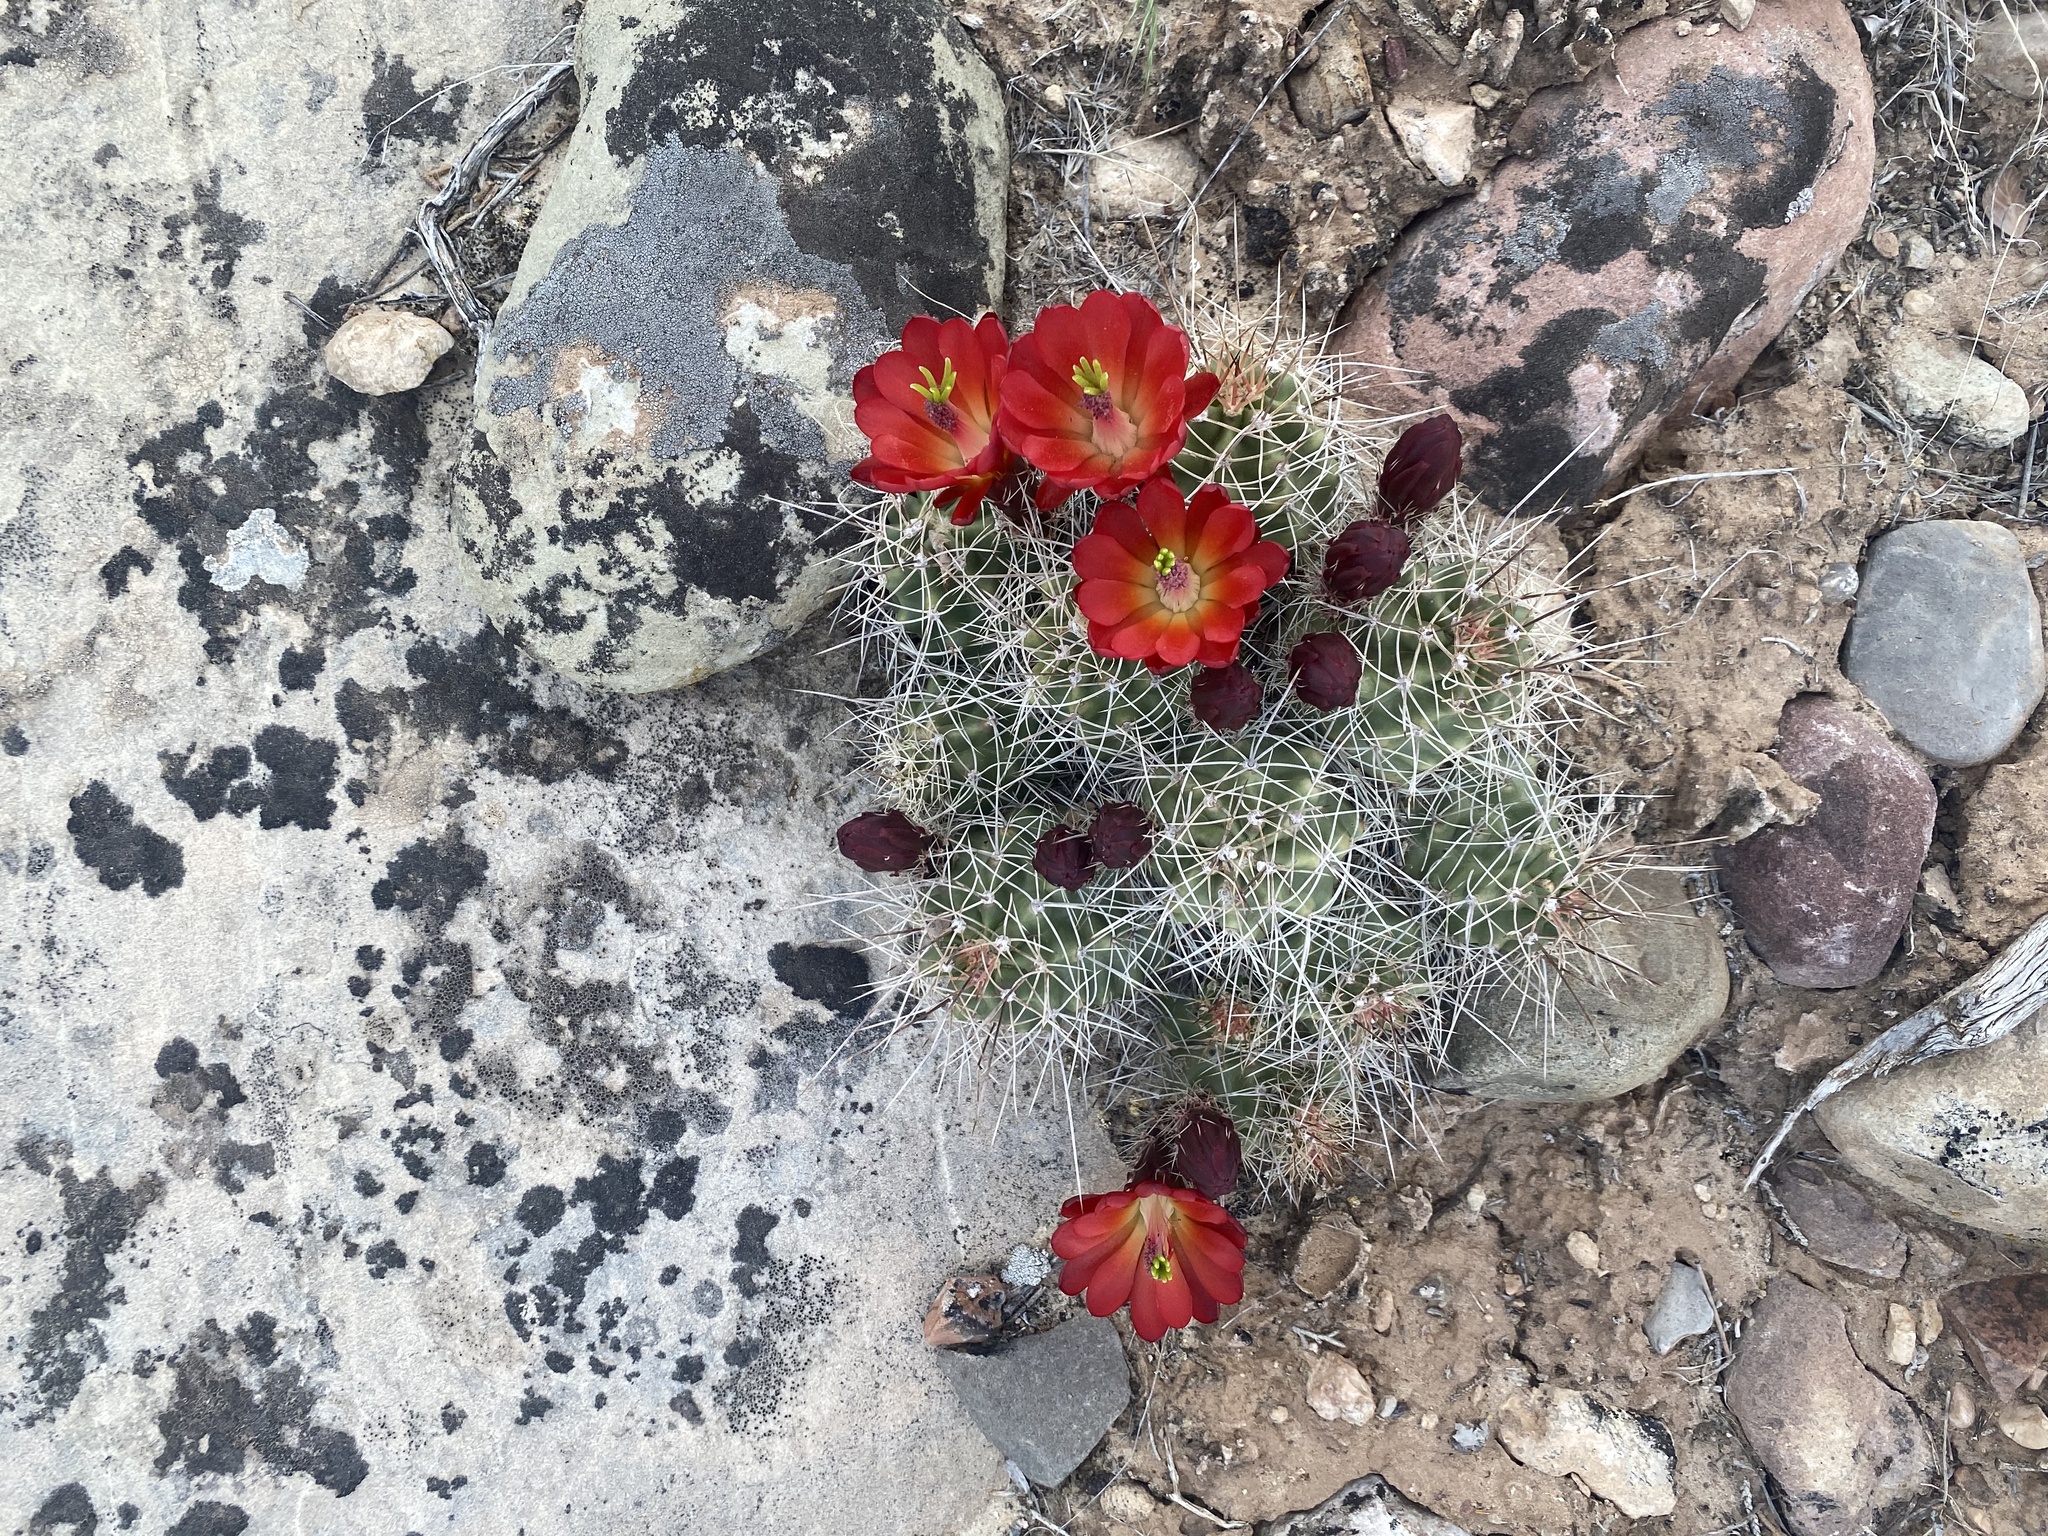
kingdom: Plantae
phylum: Tracheophyta
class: Magnoliopsida
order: Caryophyllales
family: Cactaceae
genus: Echinocereus
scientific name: Echinocereus triglochidiatus
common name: Claretcup hedgehog
